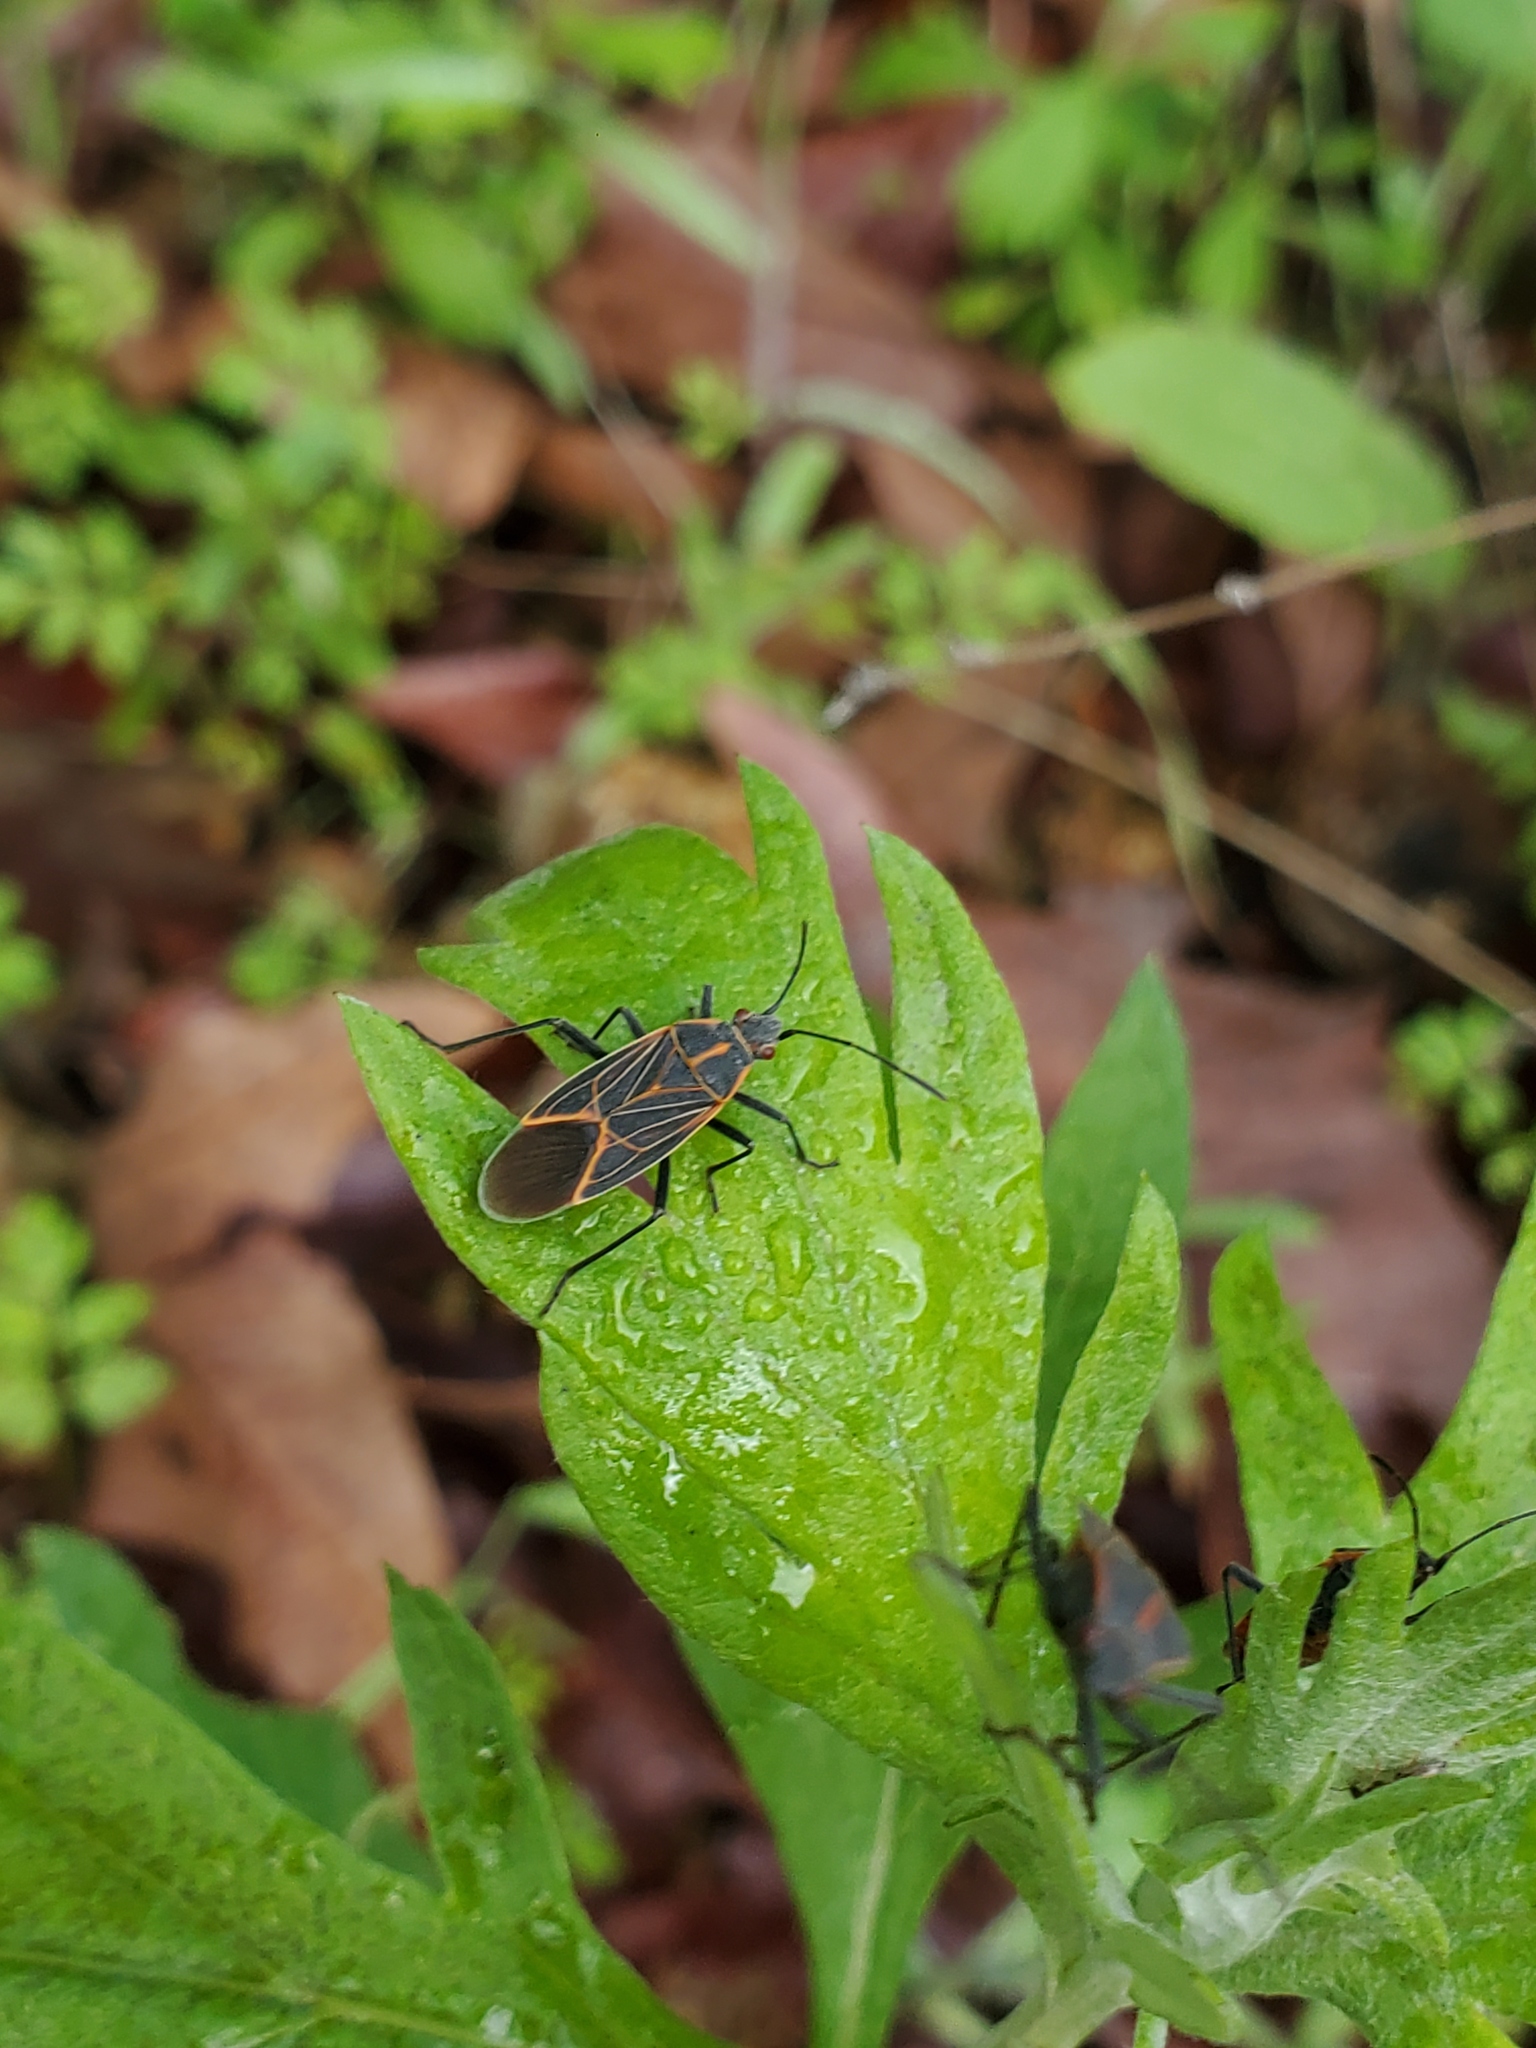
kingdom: Animalia
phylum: Arthropoda
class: Insecta
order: Hemiptera
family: Rhopalidae
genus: Boisea
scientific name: Boisea rubrolineata
